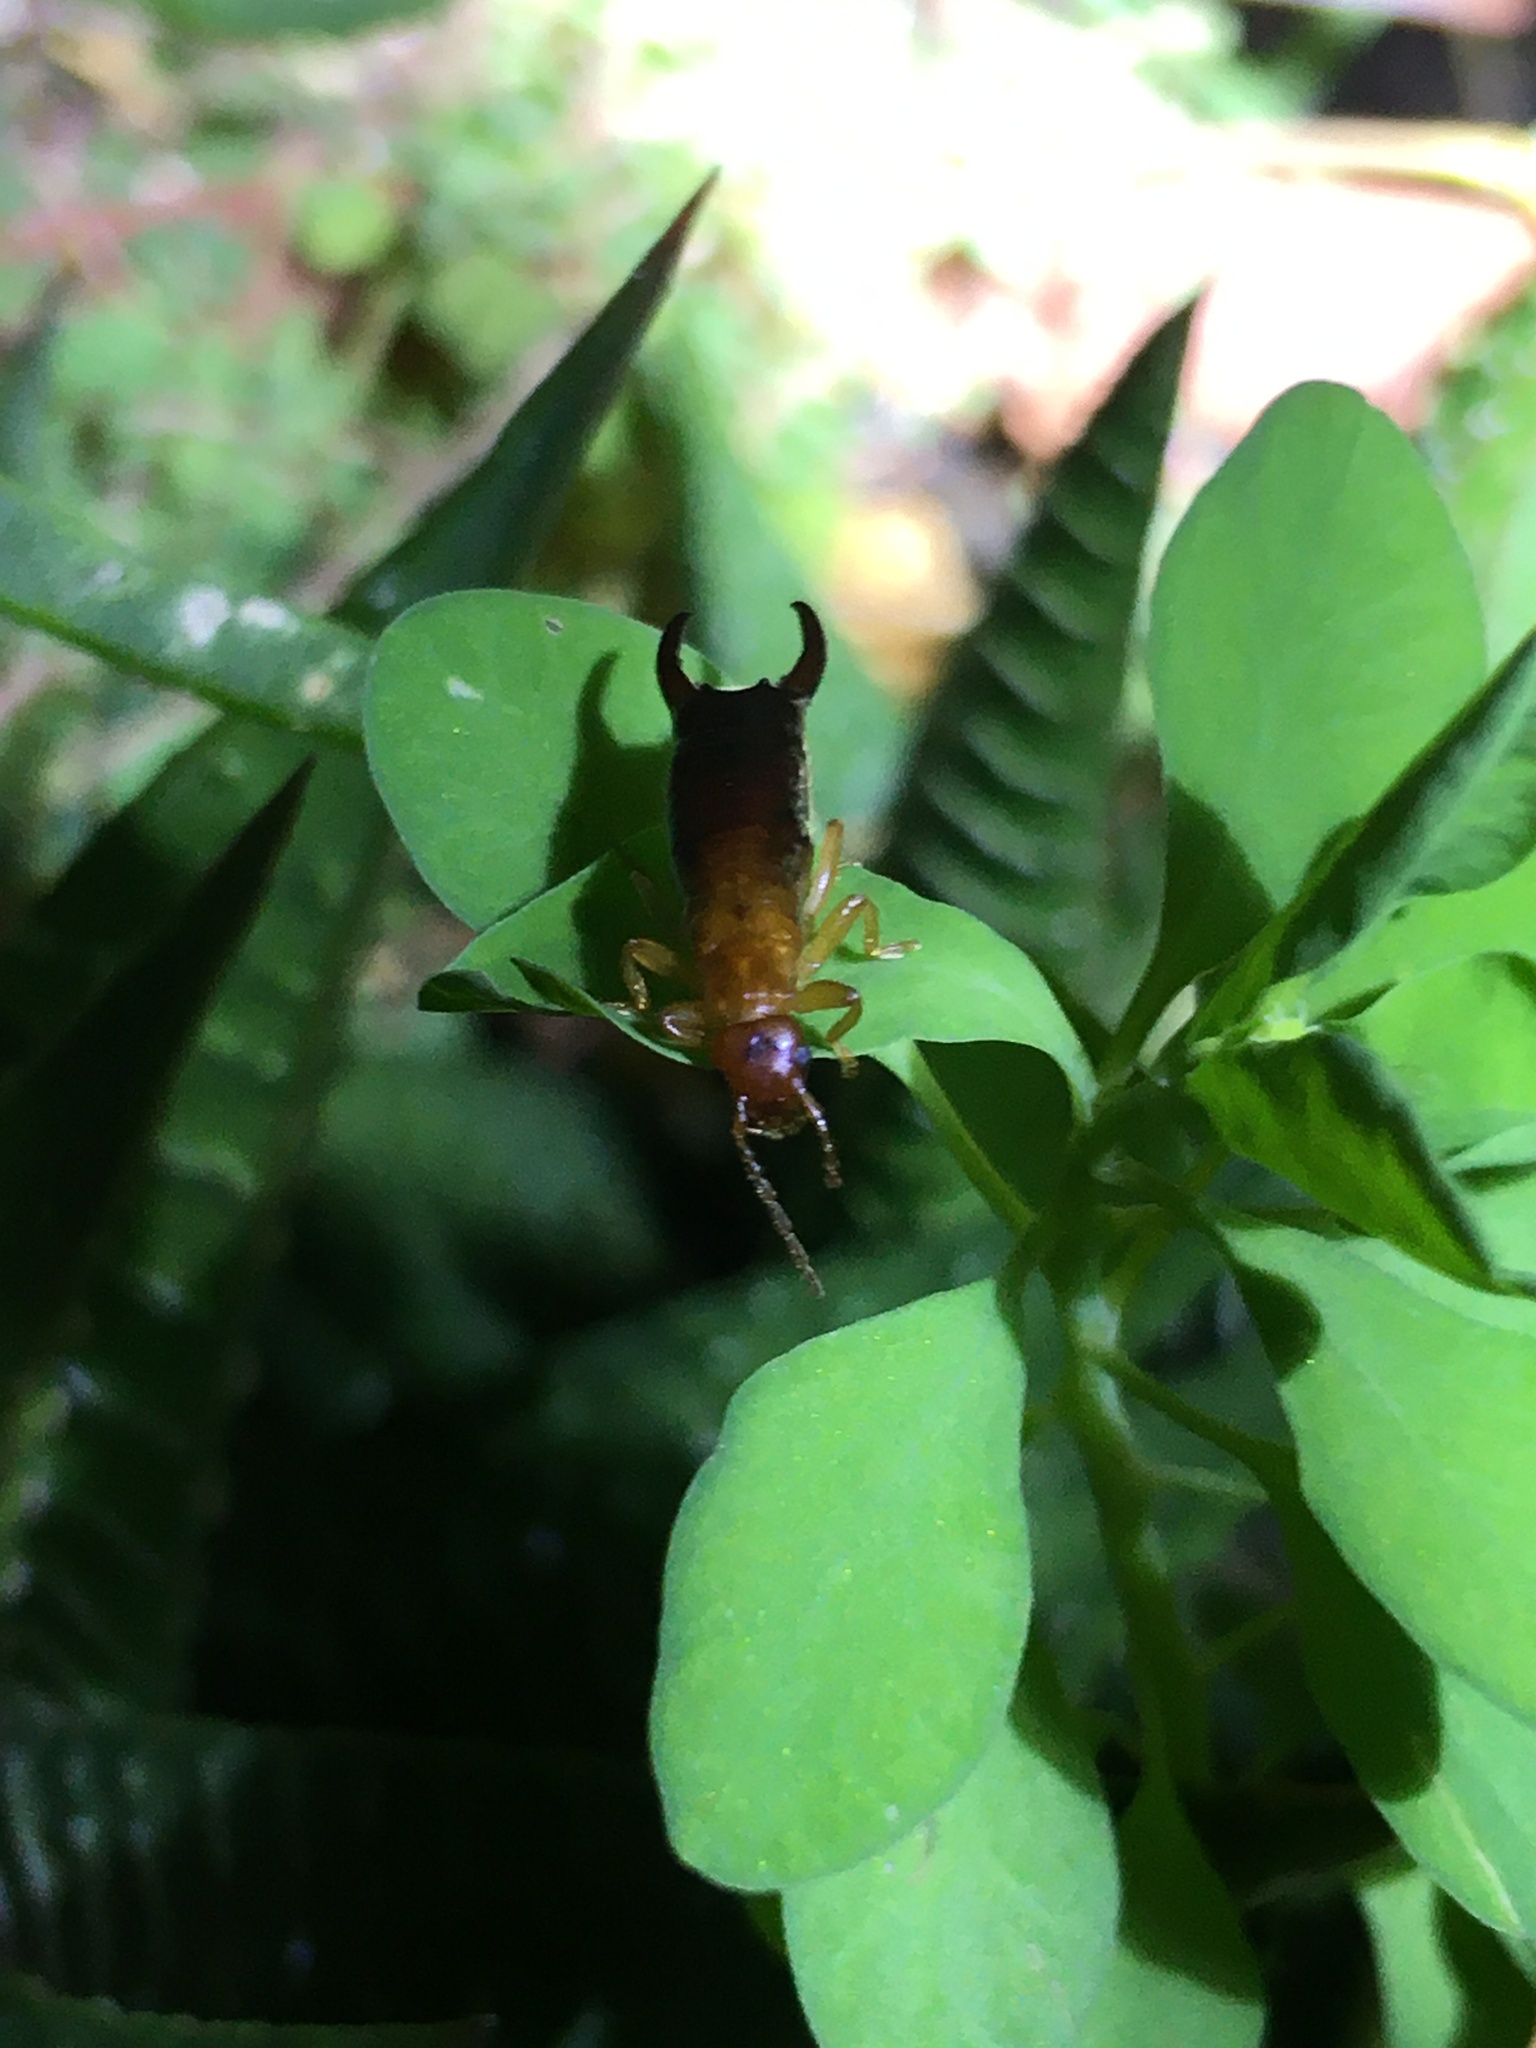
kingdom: Animalia
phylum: Arthropoda
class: Insecta
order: Dermaptera
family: Forficulidae
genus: Proforficula
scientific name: Proforficula peringueyi
